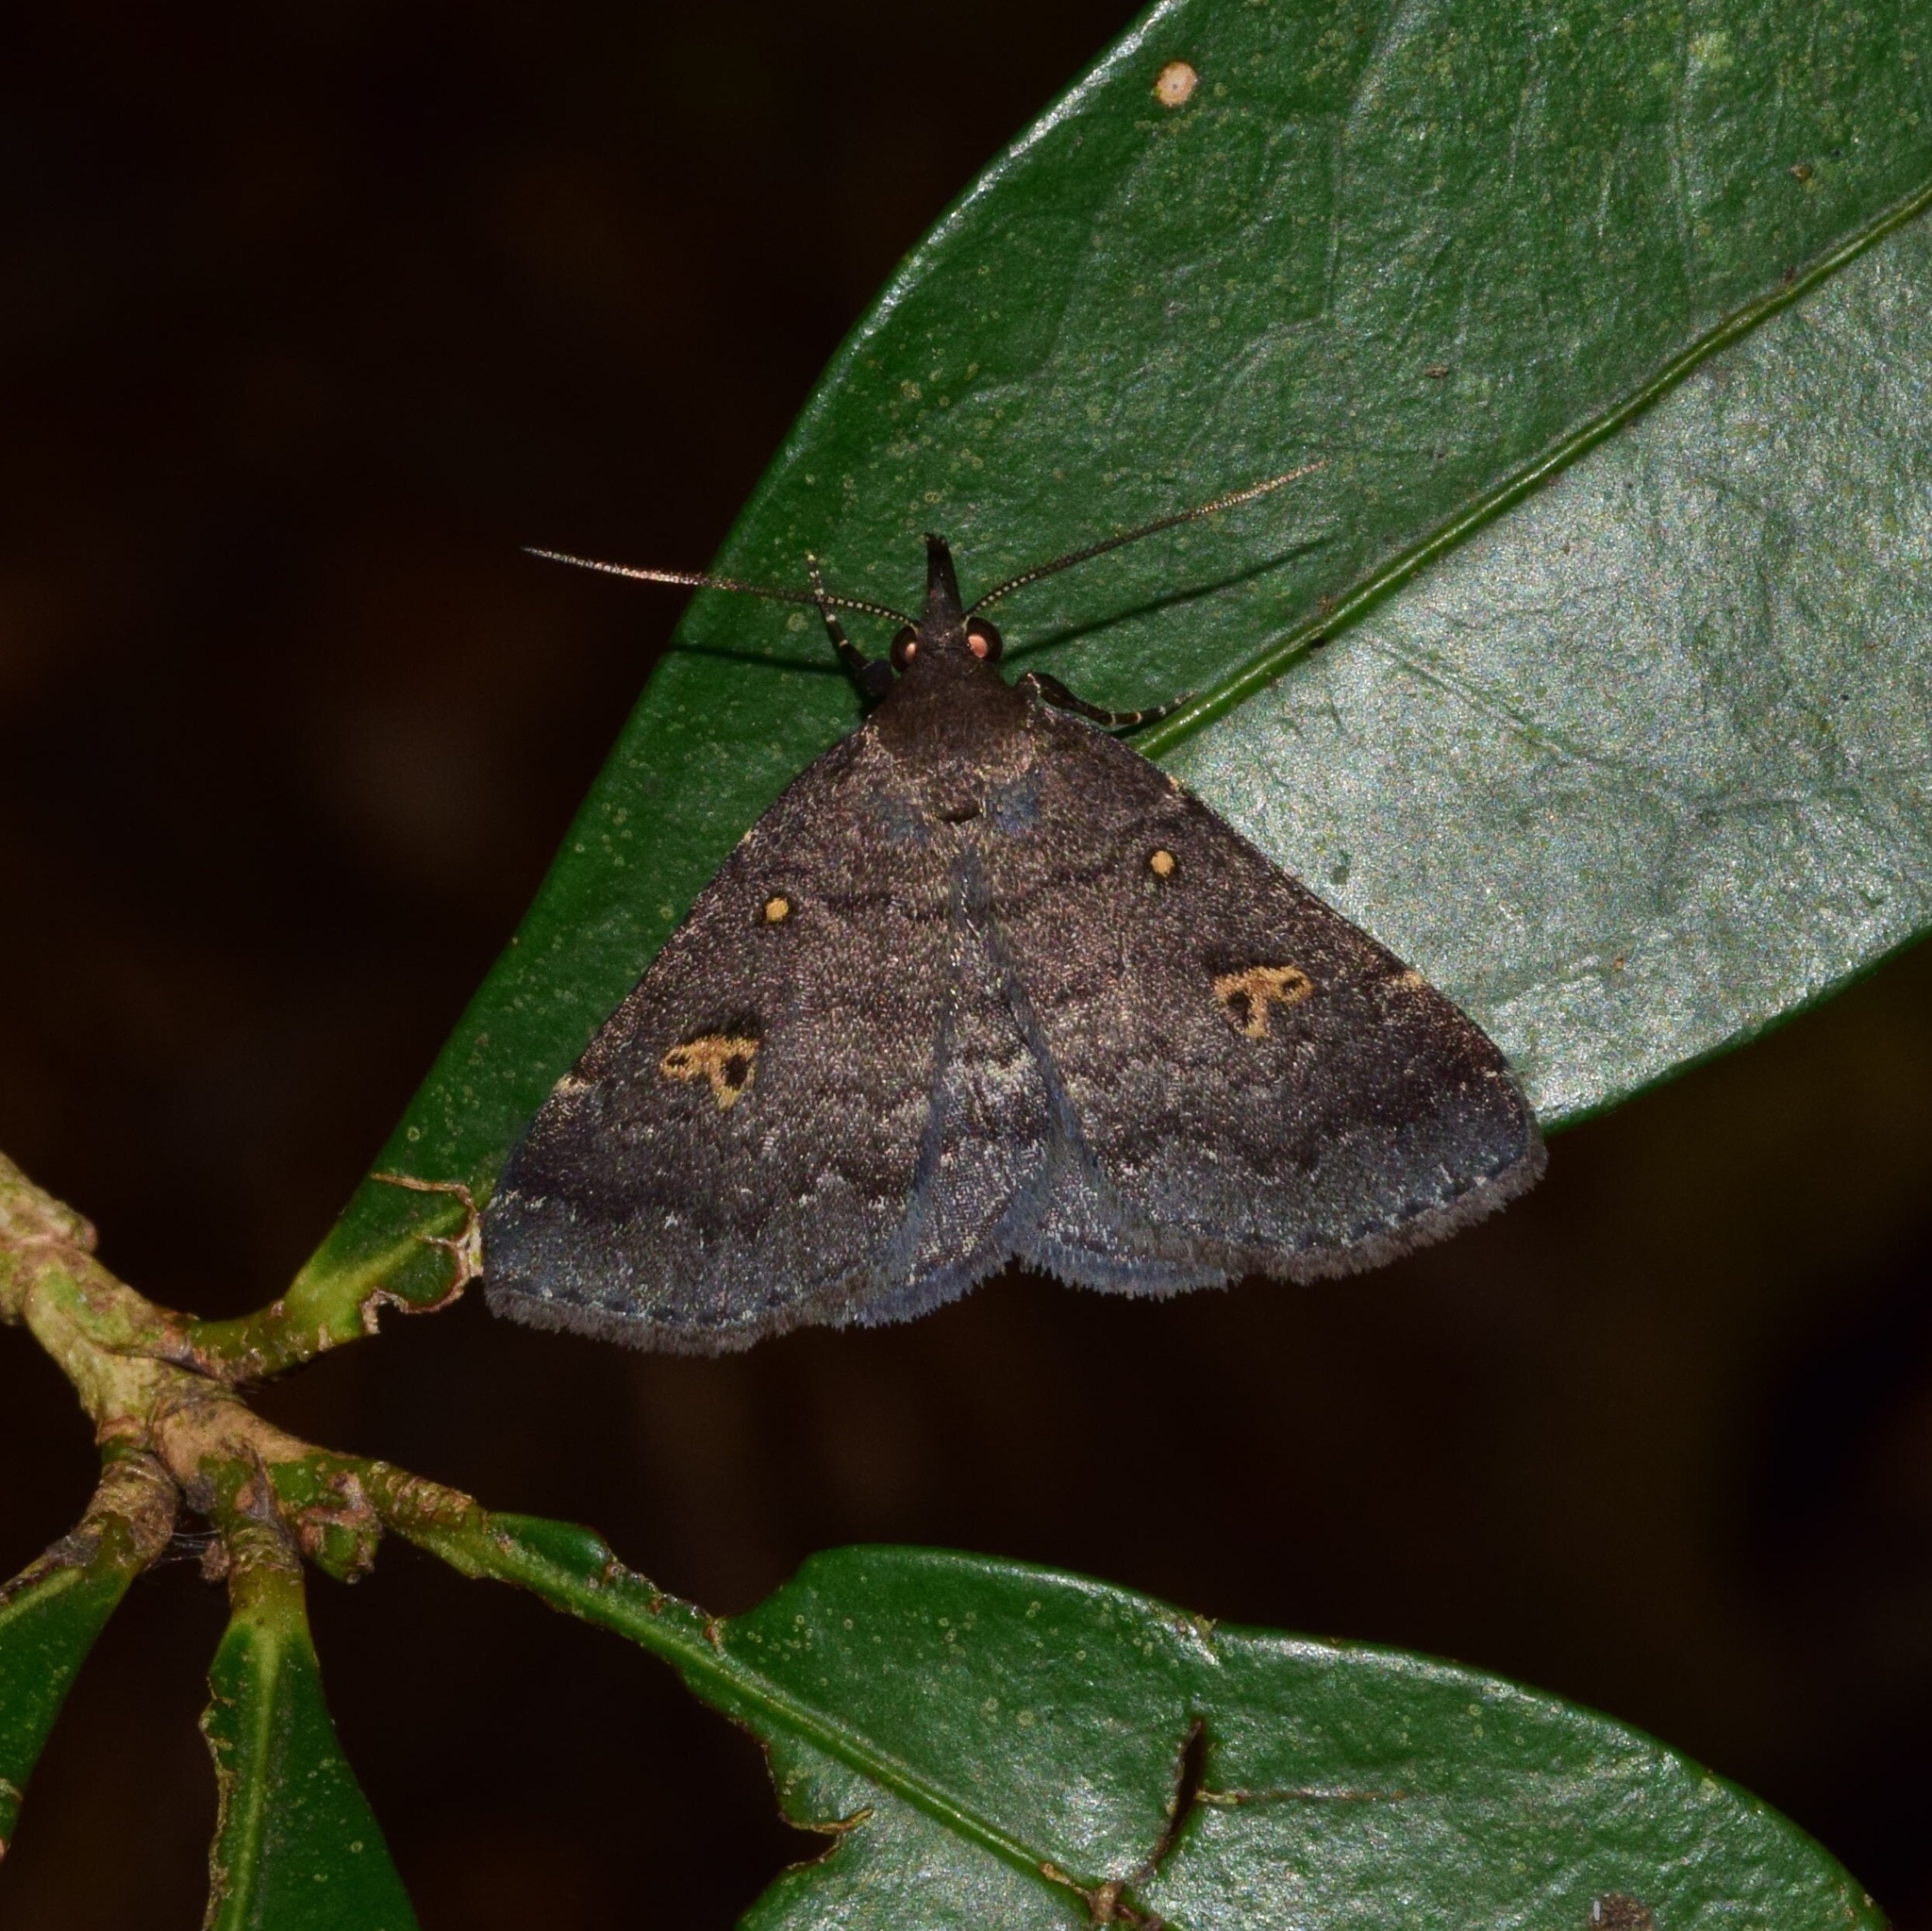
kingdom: Animalia
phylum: Arthropoda
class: Insecta
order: Lepidoptera
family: Erebidae
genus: Polypogon
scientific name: Polypogon melanommoides
